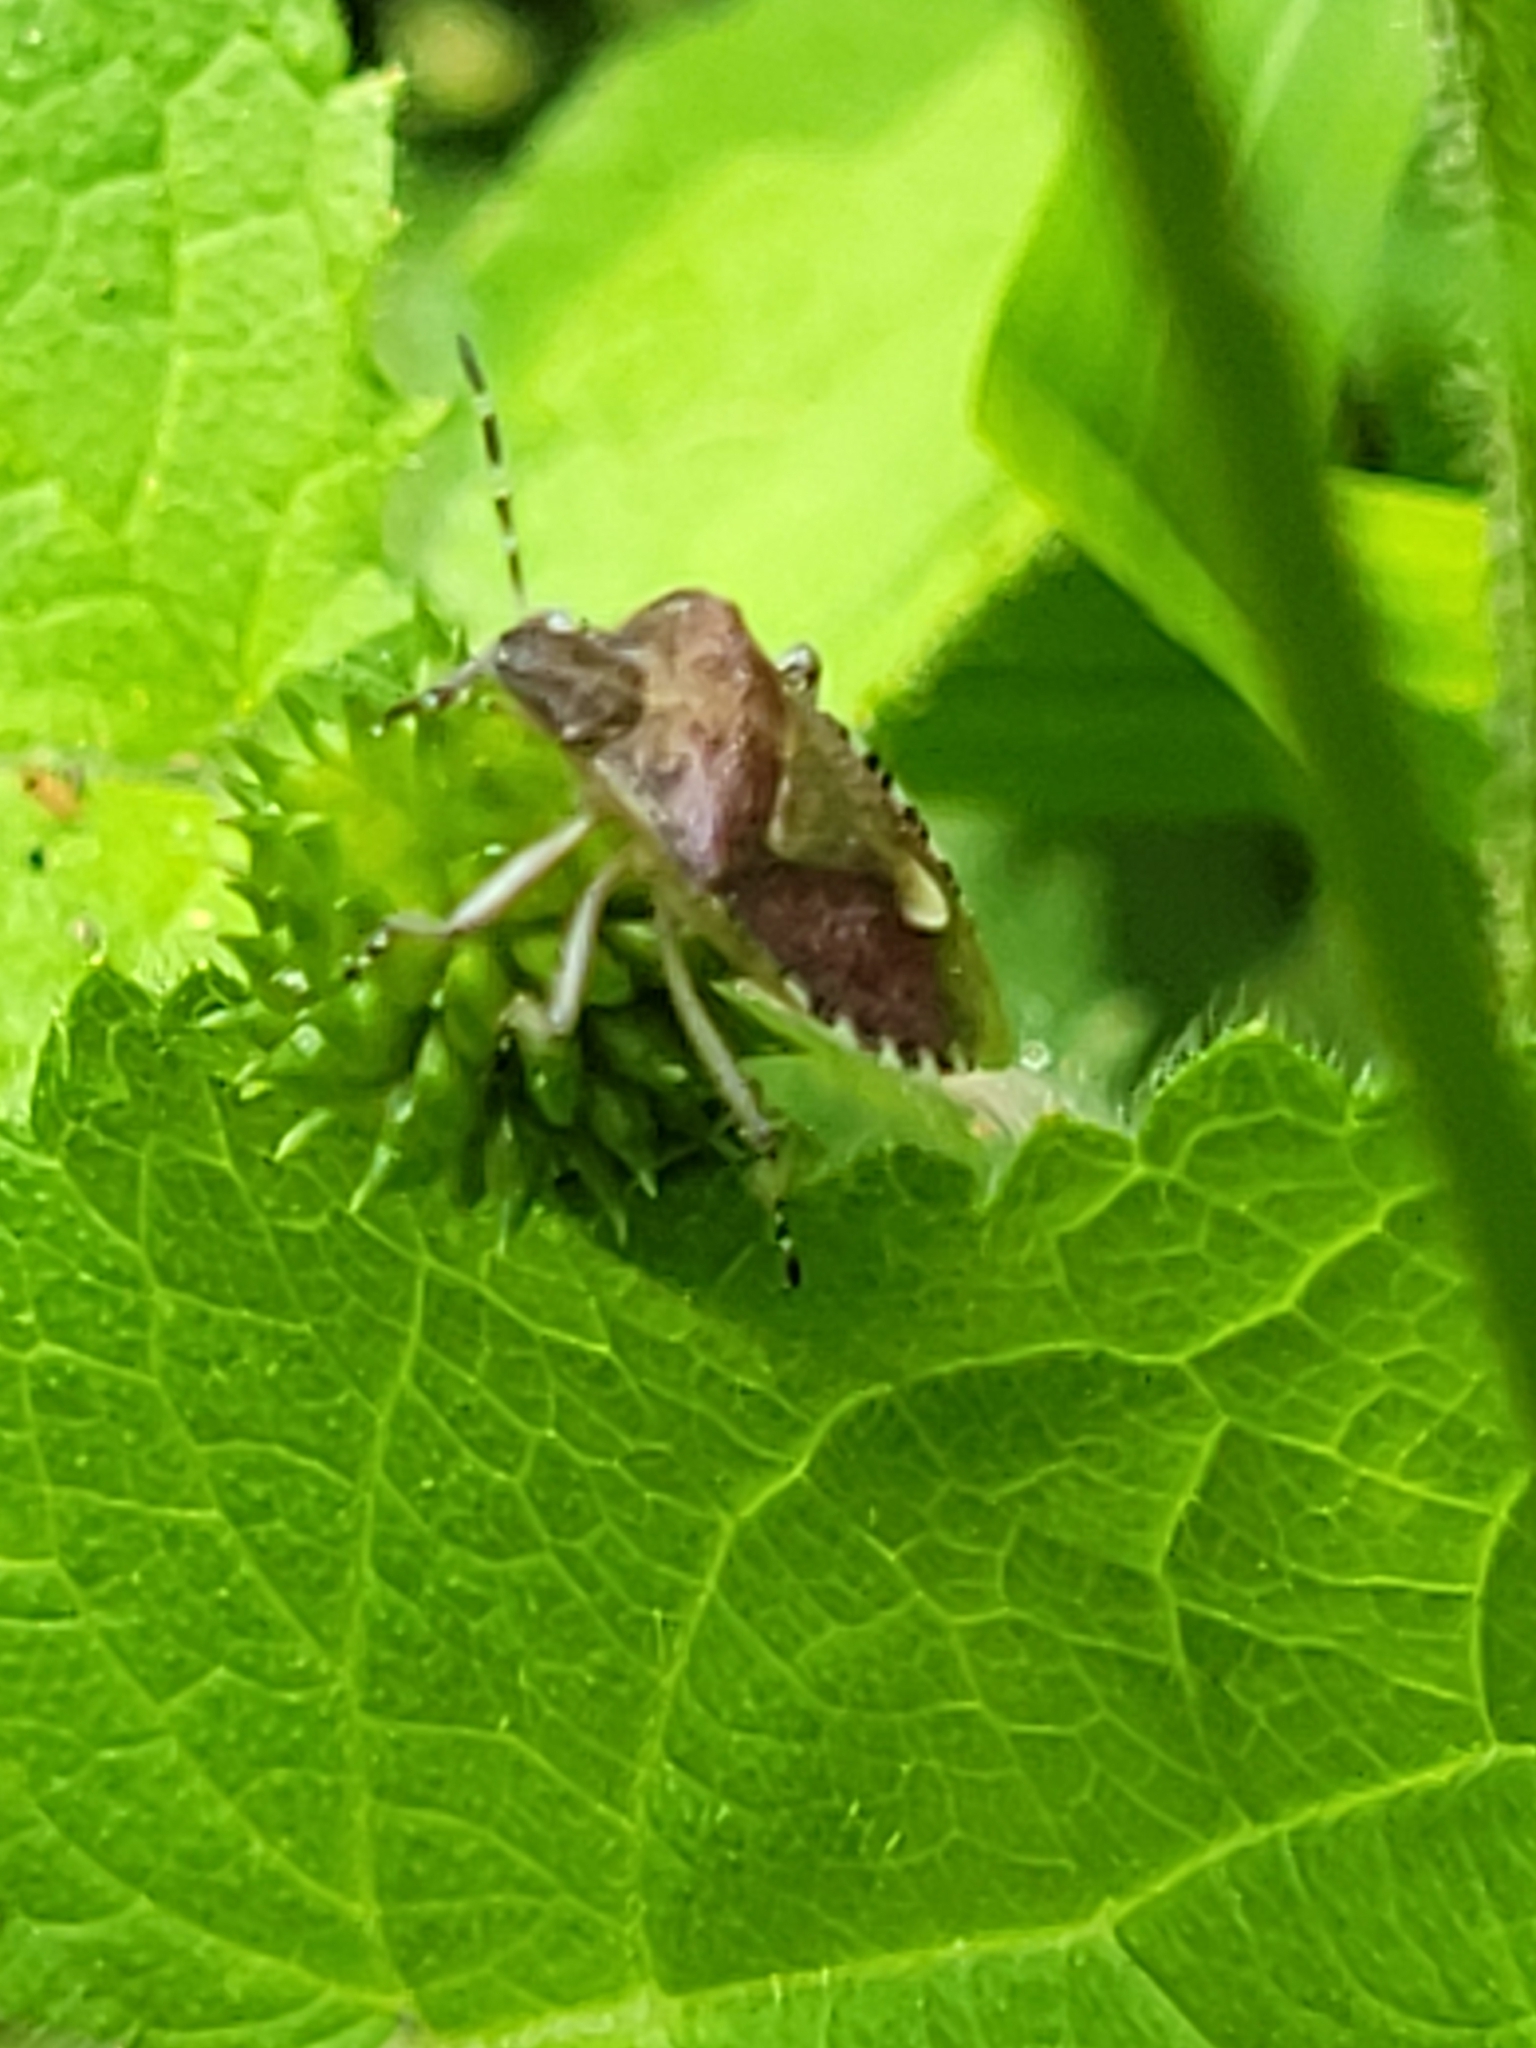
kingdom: Animalia
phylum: Arthropoda
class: Insecta
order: Hemiptera
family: Pentatomidae
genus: Dolycoris
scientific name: Dolycoris baccarum
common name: Sloe bug
